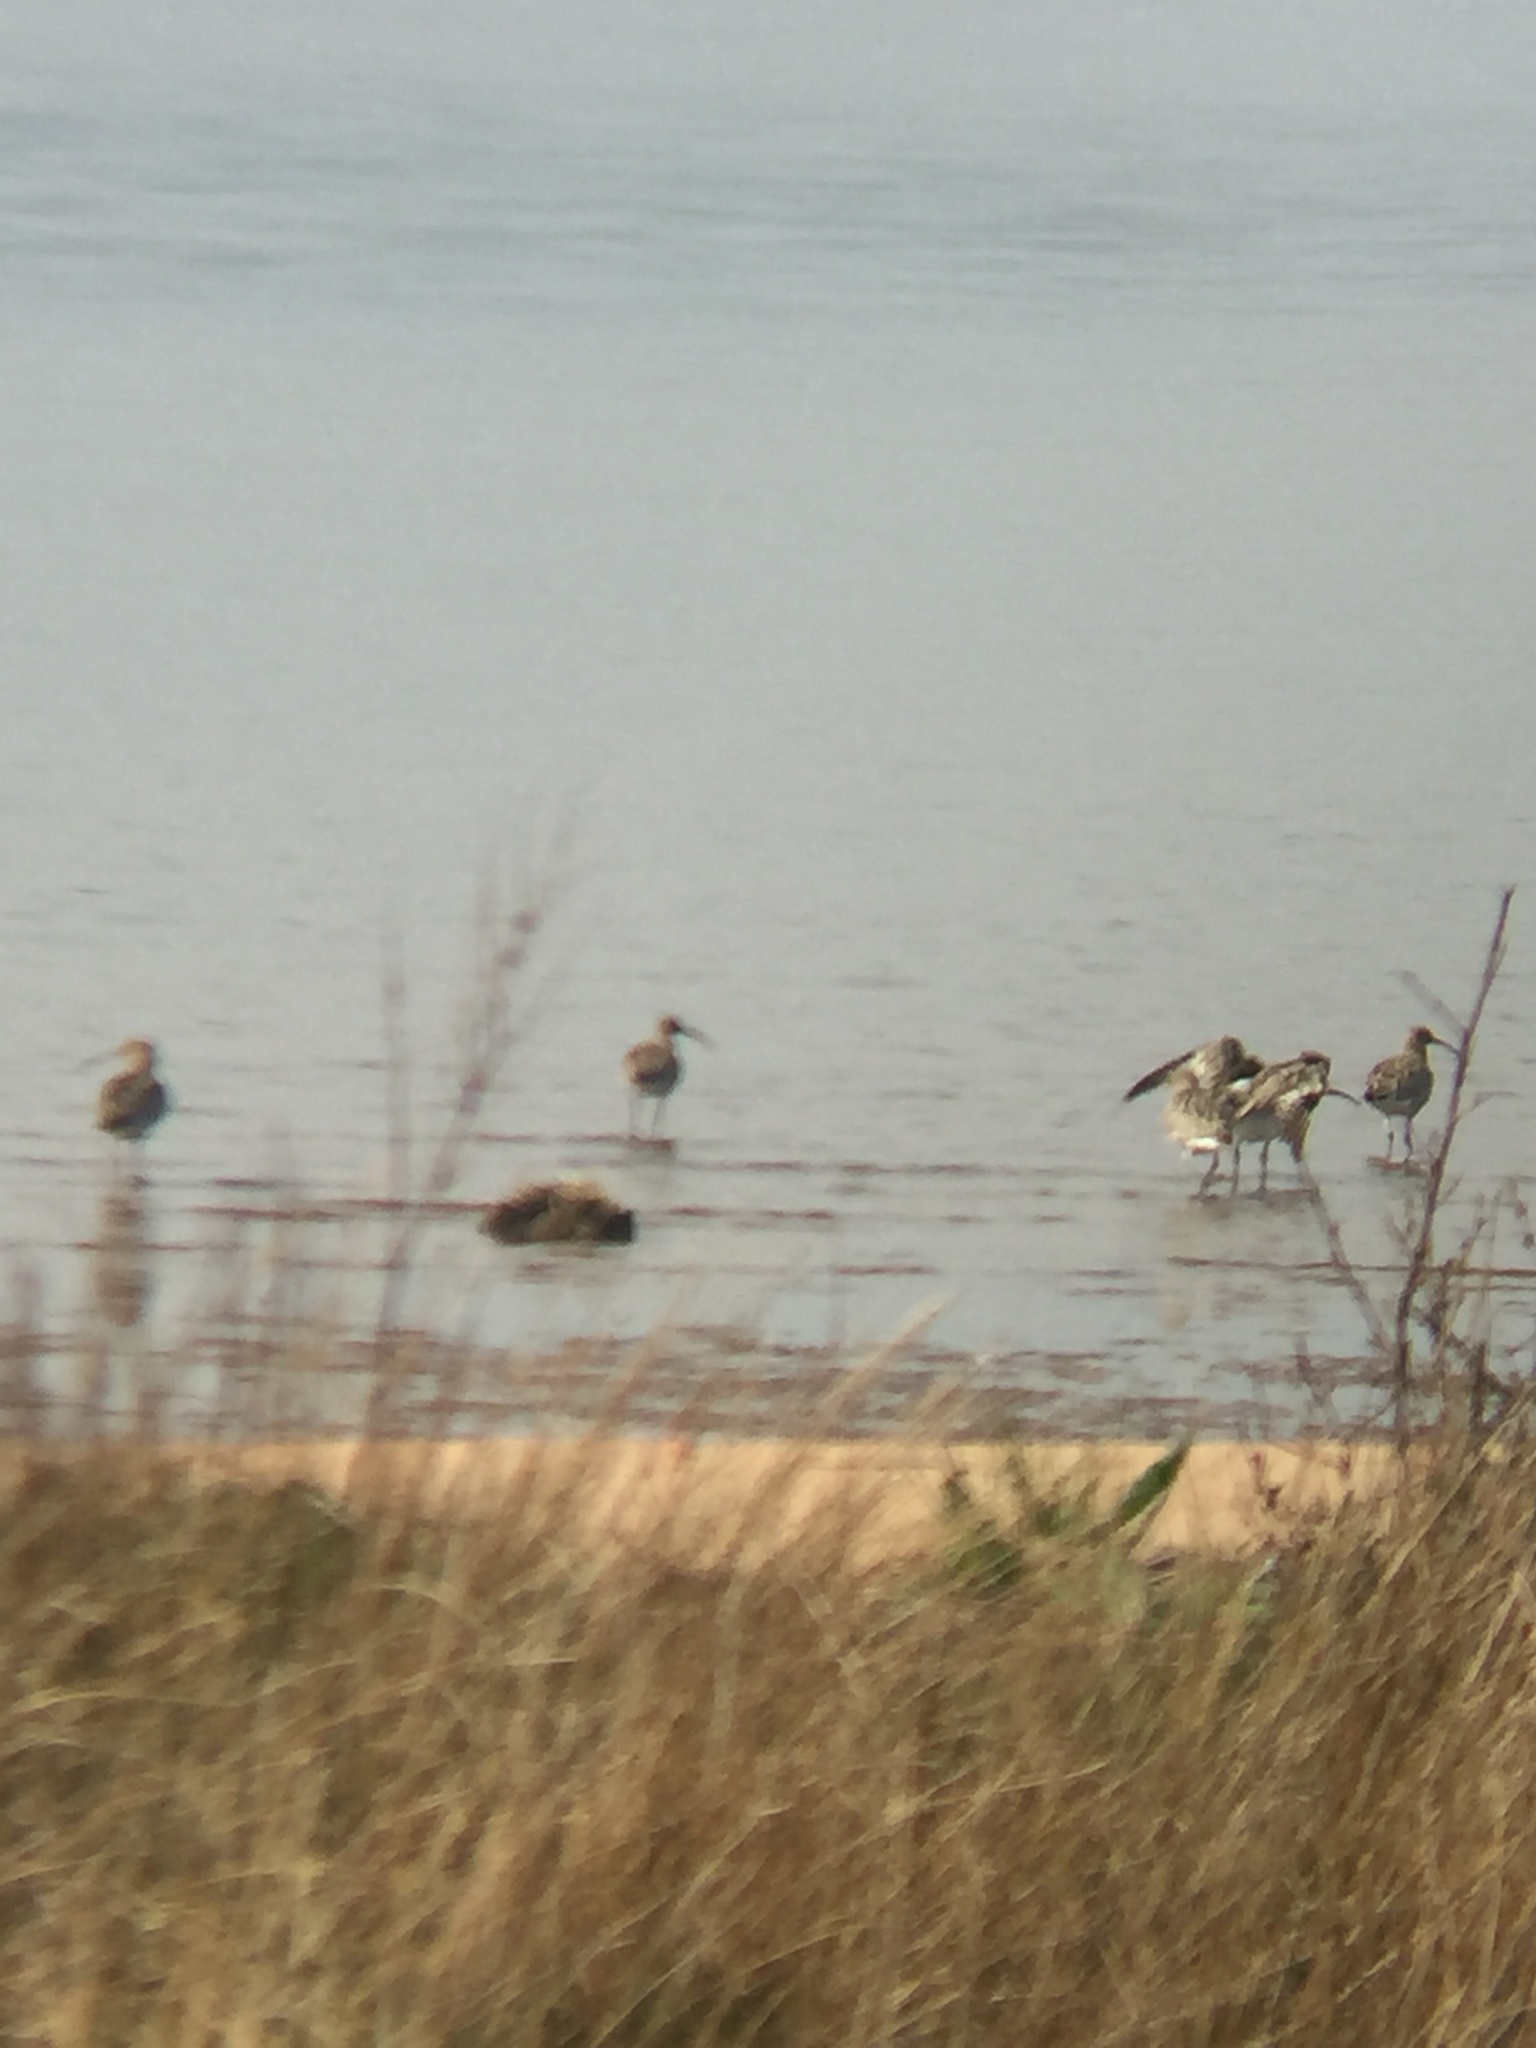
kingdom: Animalia
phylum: Chordata
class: Aves
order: Charadriiformes
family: Scolopacidae
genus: Numenius
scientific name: Numenius arquata
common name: Eurasian curlew
